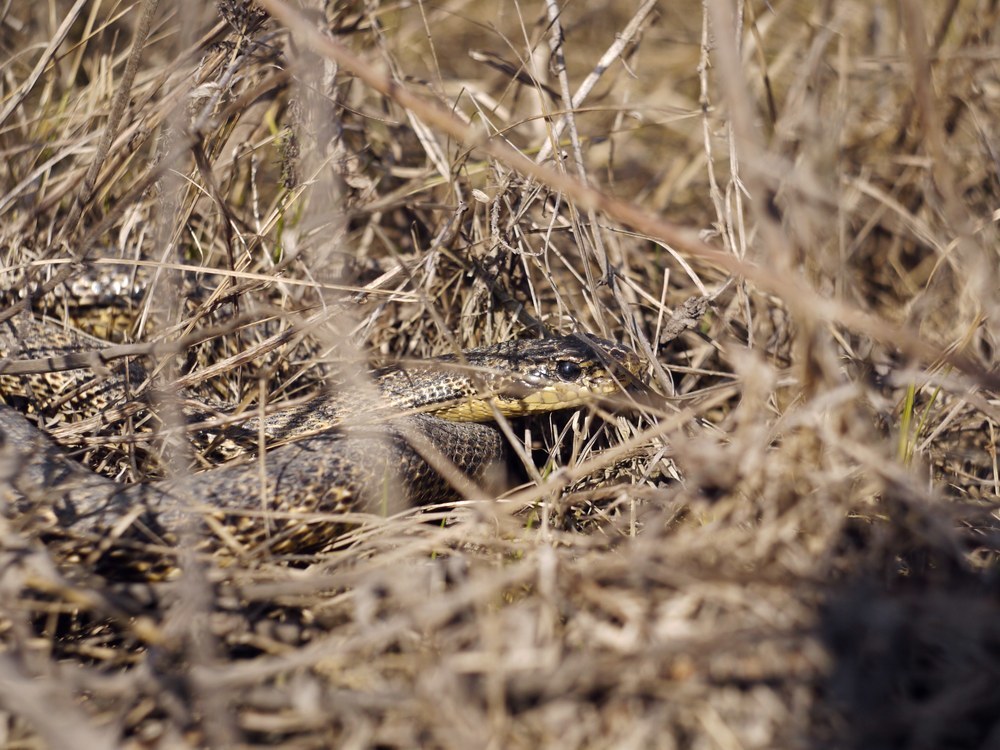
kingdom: Animalia
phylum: Chordata
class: Squamata
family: Colubridae
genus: Elaphe
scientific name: Elaphe sauromates
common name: Eastern four-lined ratsnake
